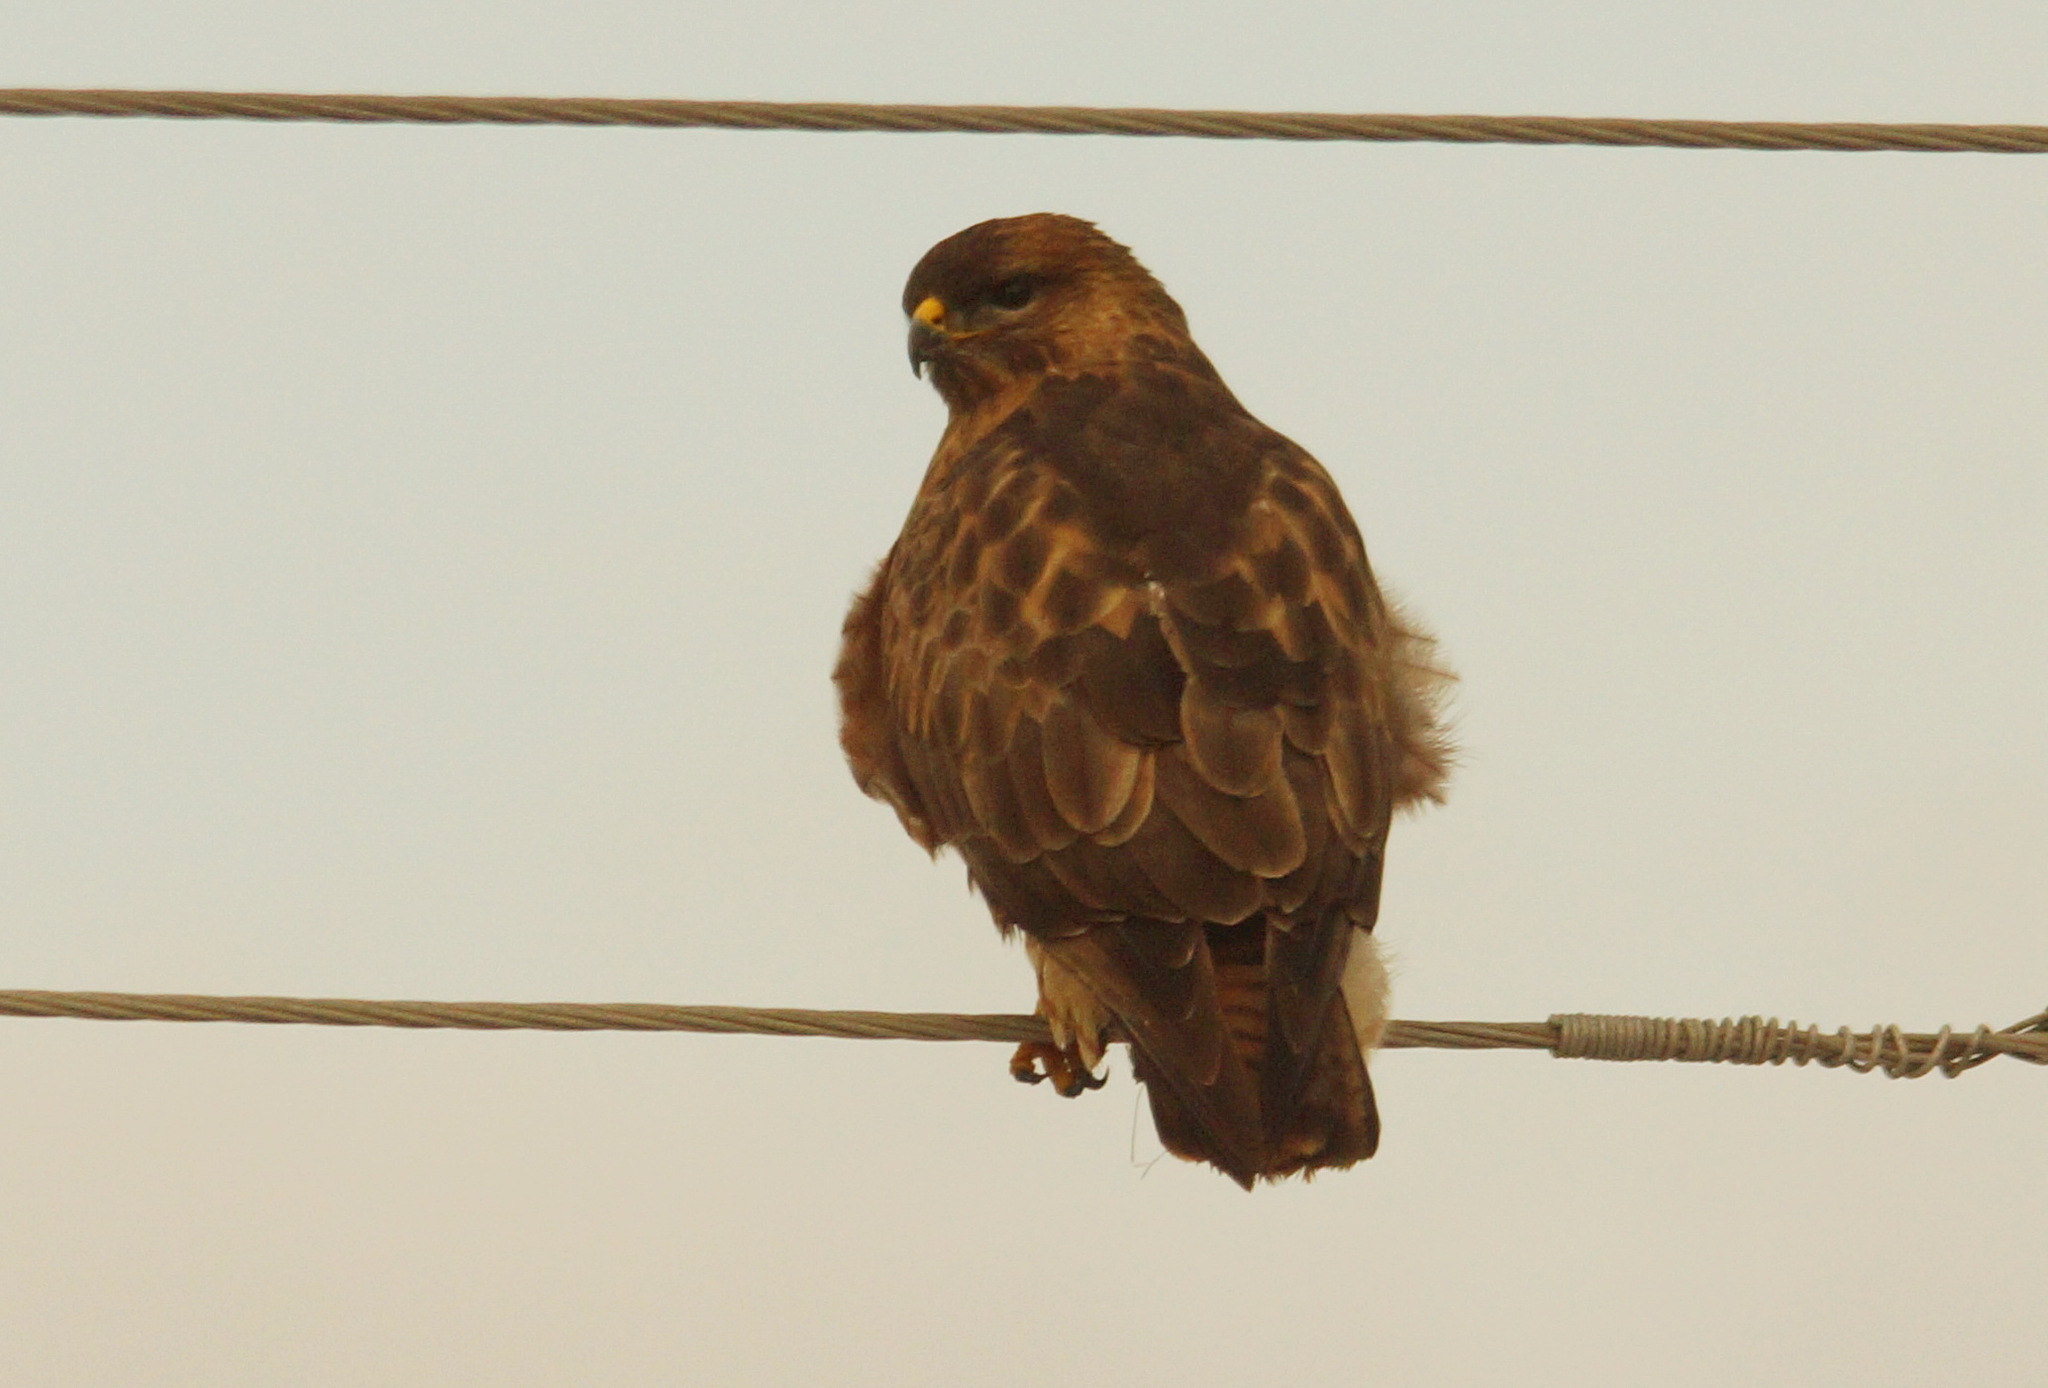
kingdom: Animalia
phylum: Chordata
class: Aves
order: Accipitriformes
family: Accipitridae
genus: Buteo
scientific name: Buteo buteo
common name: Common buzzard
